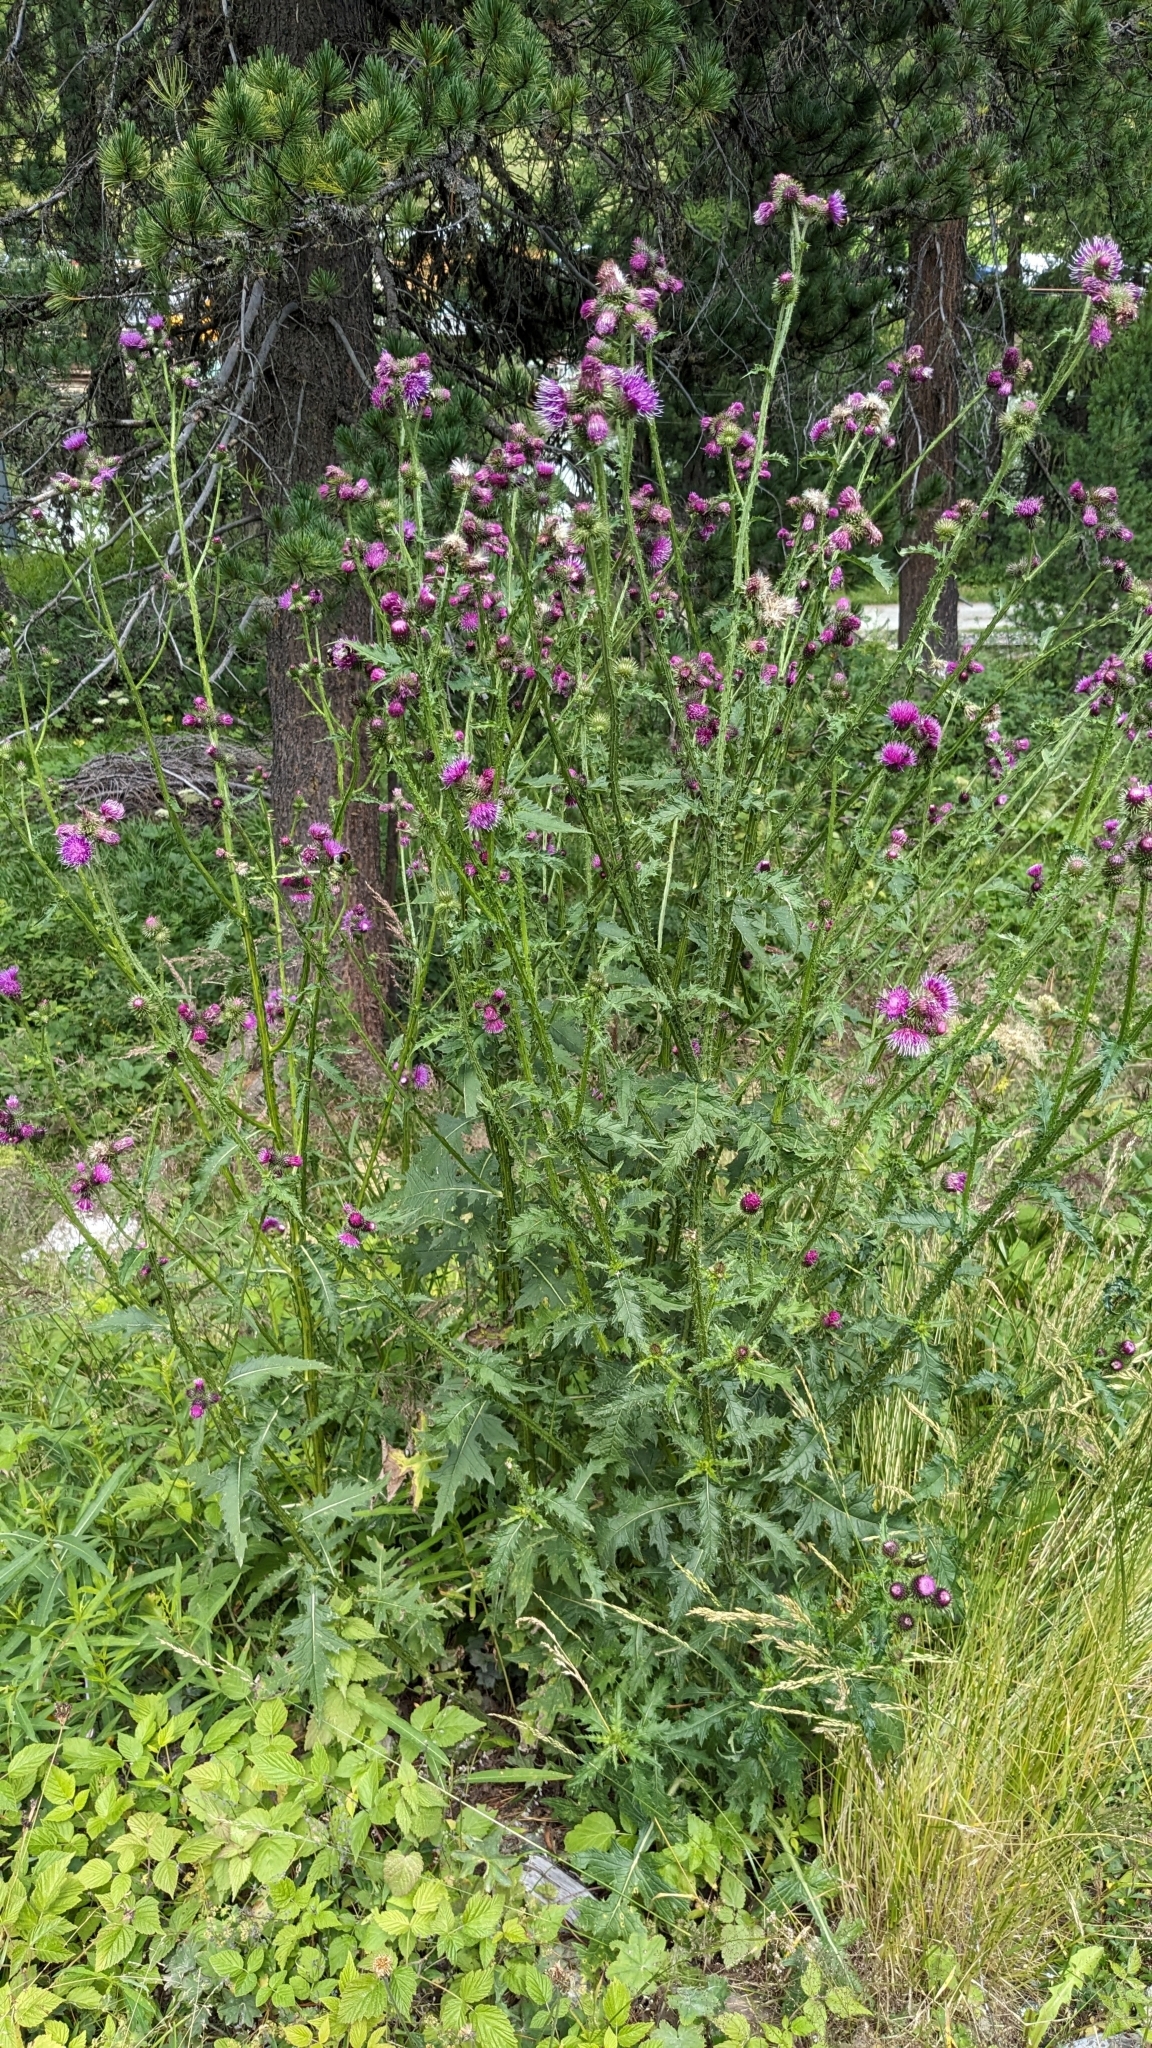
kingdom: Plantae
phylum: Tracheophyta
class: Magnoliopsida
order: Asterales
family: Asteraceae
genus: Carduus
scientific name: Carduus crispus
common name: Welted thistle
